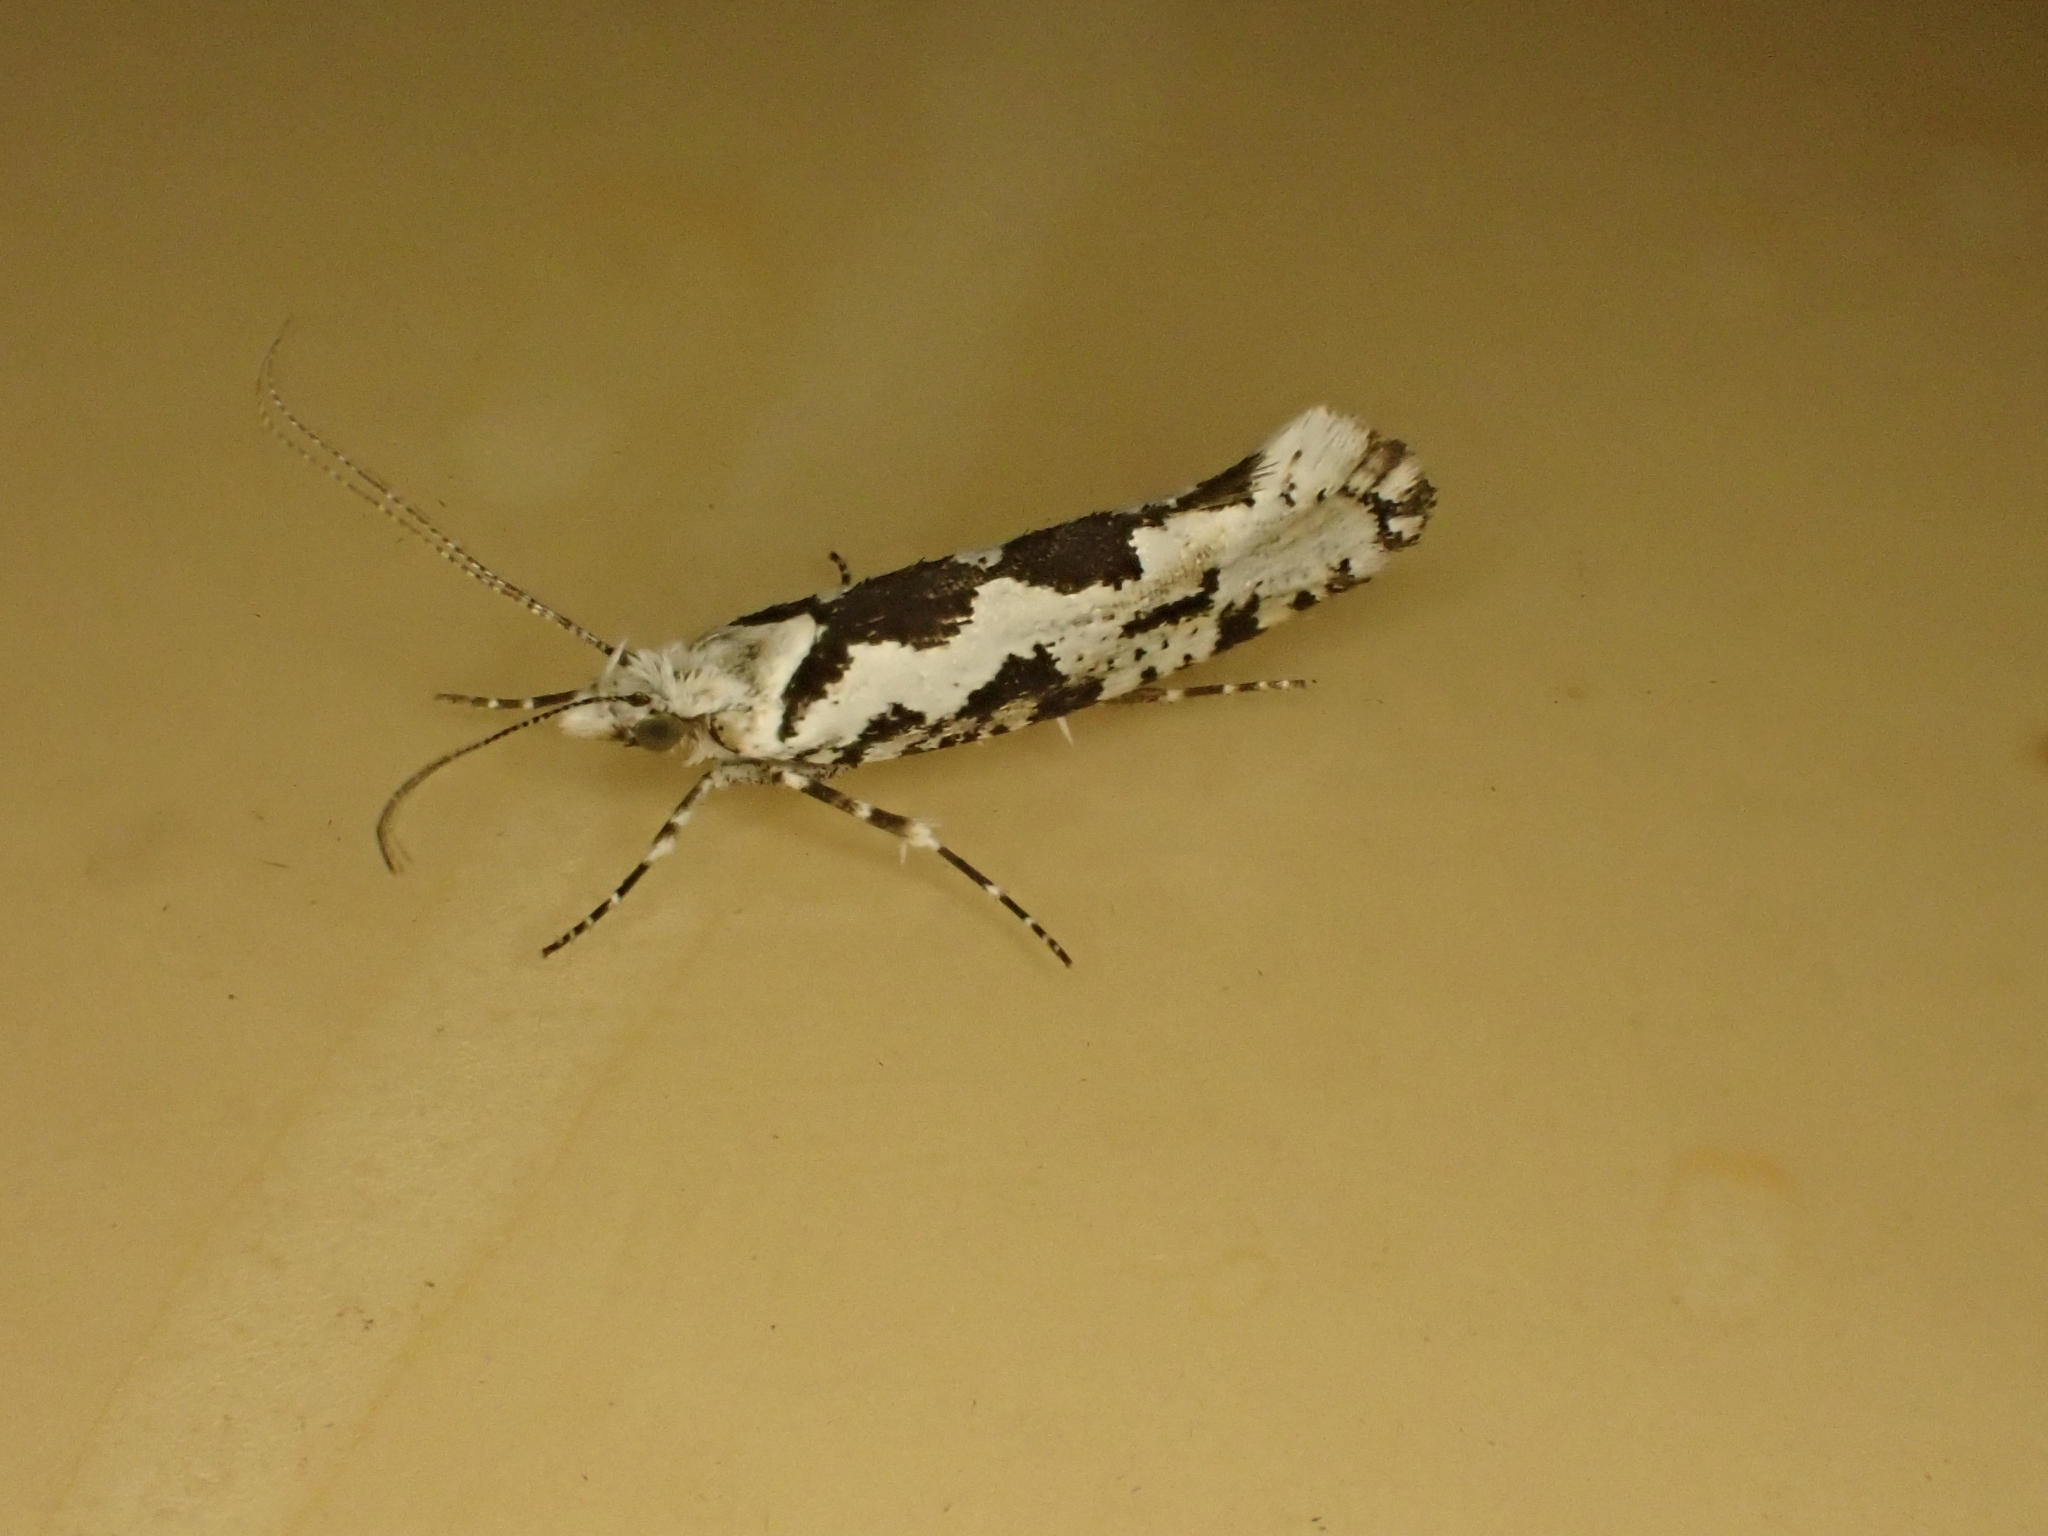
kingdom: Animalia
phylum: Arthropoda
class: Insecta
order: Lepidoptera
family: Plutellidae
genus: Ypsolophus
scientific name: Ypsolophus sequella
